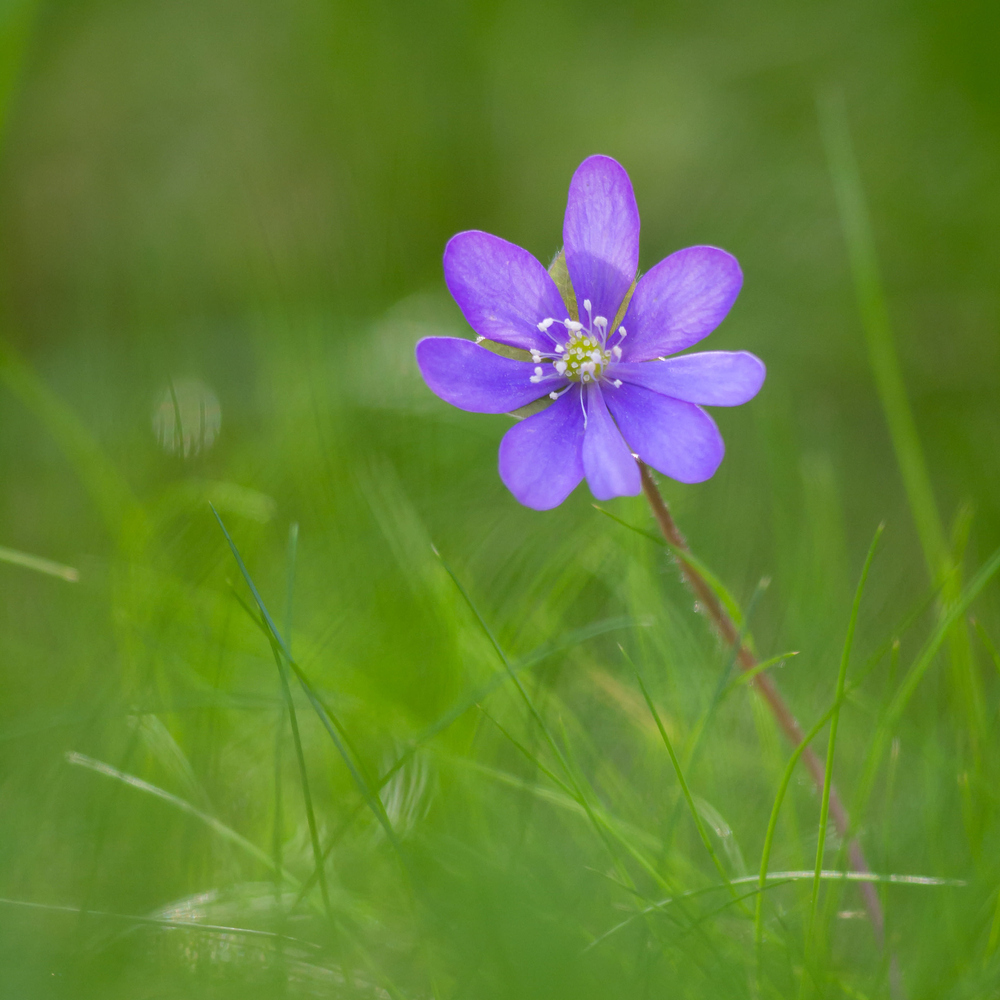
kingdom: Plantae
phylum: Tracheophyta
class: Magnoliopsida
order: Ranunculales
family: Ranunculaceae
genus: Hepatica
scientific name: Hepatica nobilis
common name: Liverleaf
